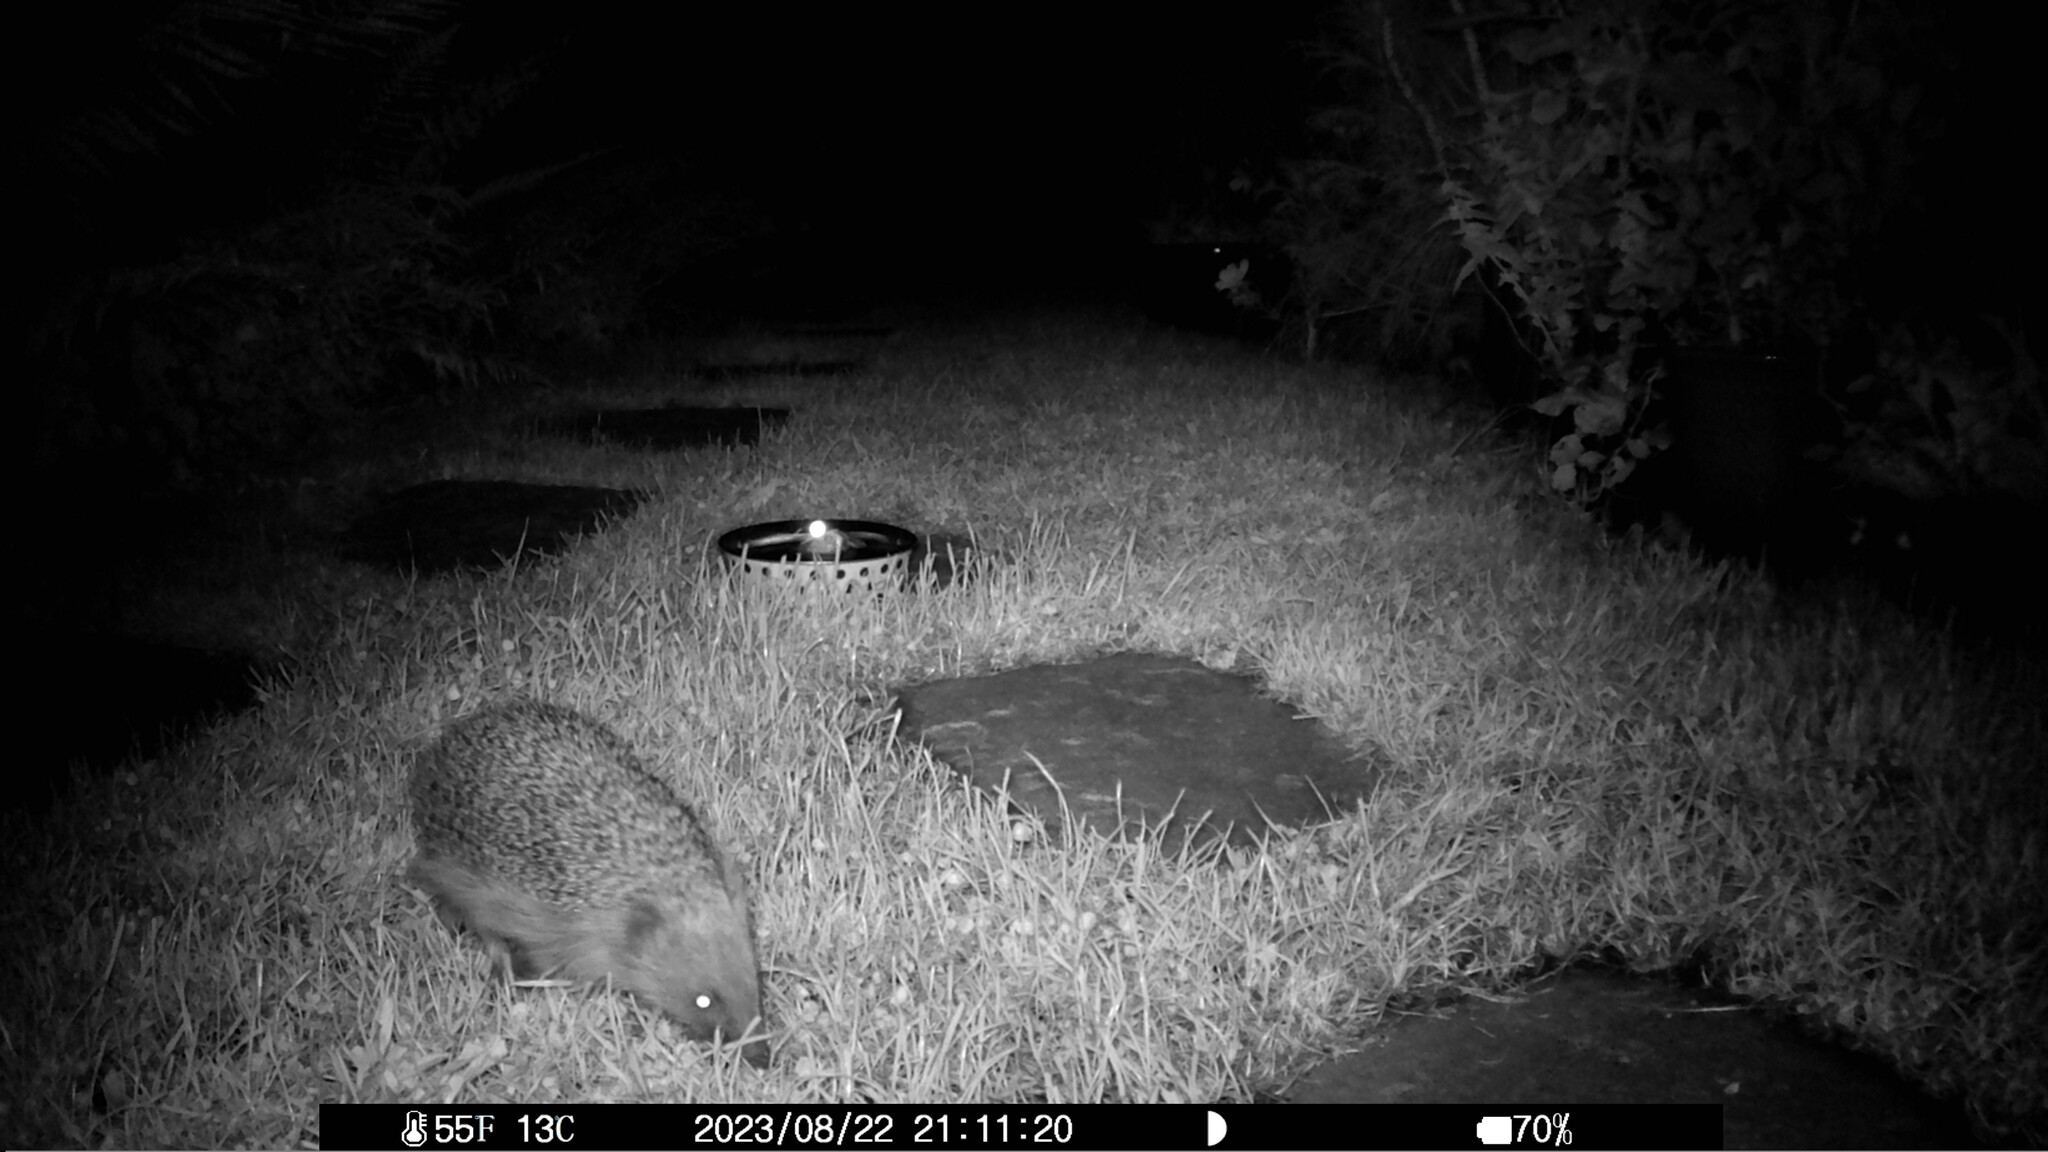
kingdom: Animalia
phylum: Chordata
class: Mammalia
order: Erinaceomorpha
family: Erinaceidae
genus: Erinaceus
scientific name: Erinaceus europaeus
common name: West european hedgehog
